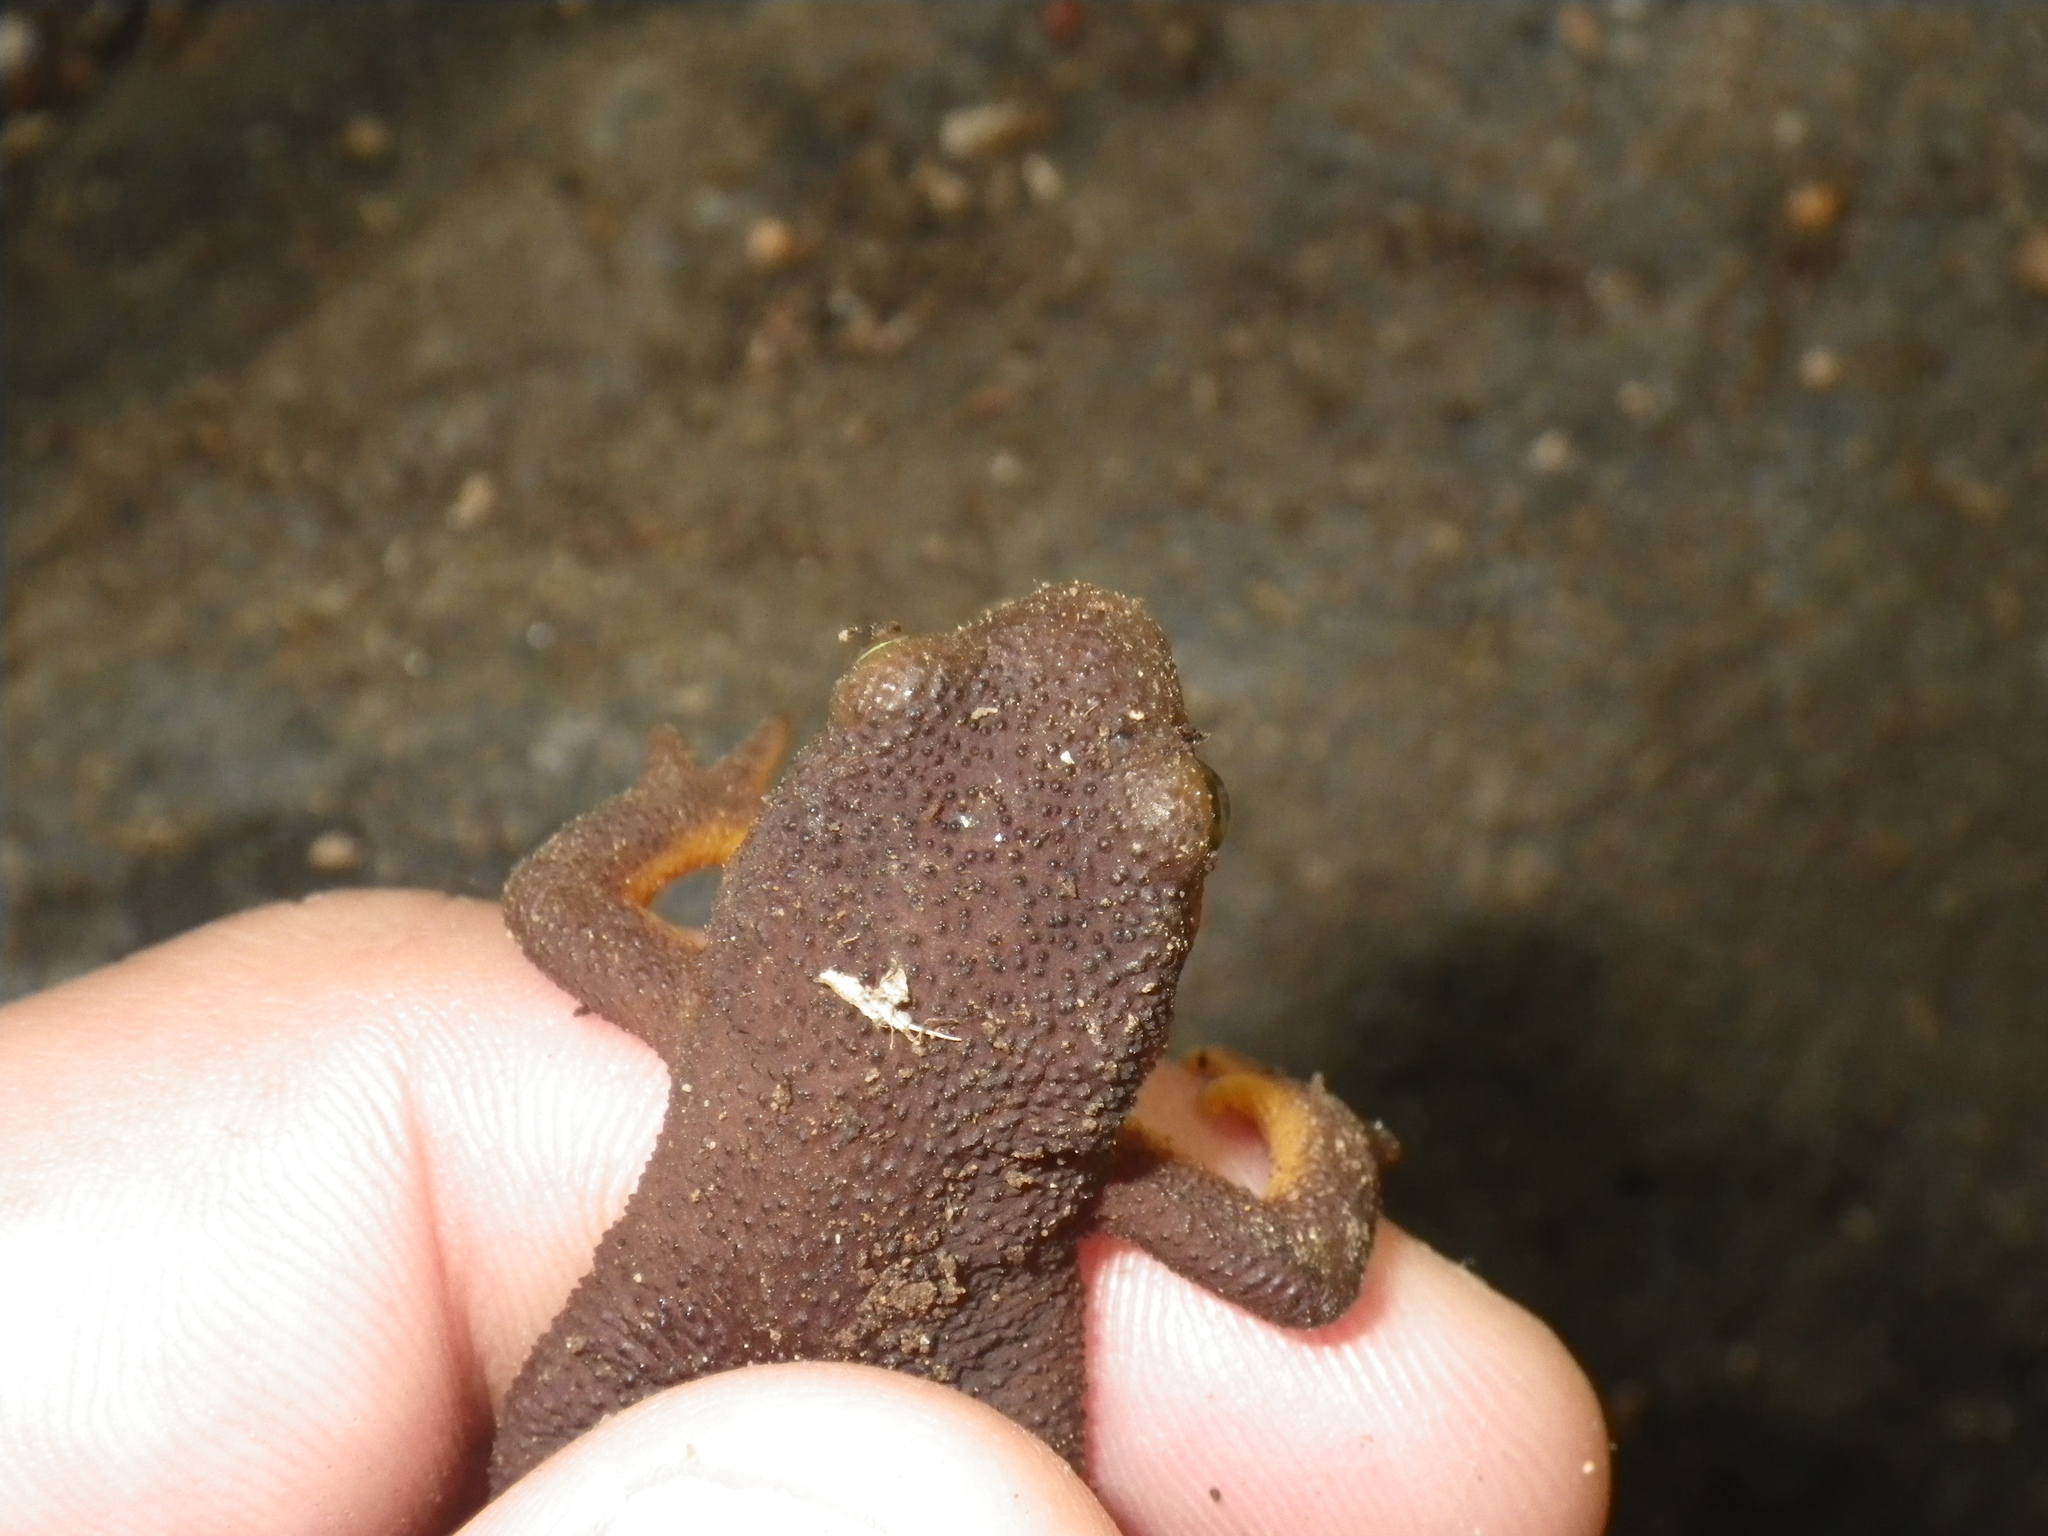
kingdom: Animalia
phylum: Chordata
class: Amphibia
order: Caudata
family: Salamandridae
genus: Taricha
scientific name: Taricha torosa
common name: California newt
